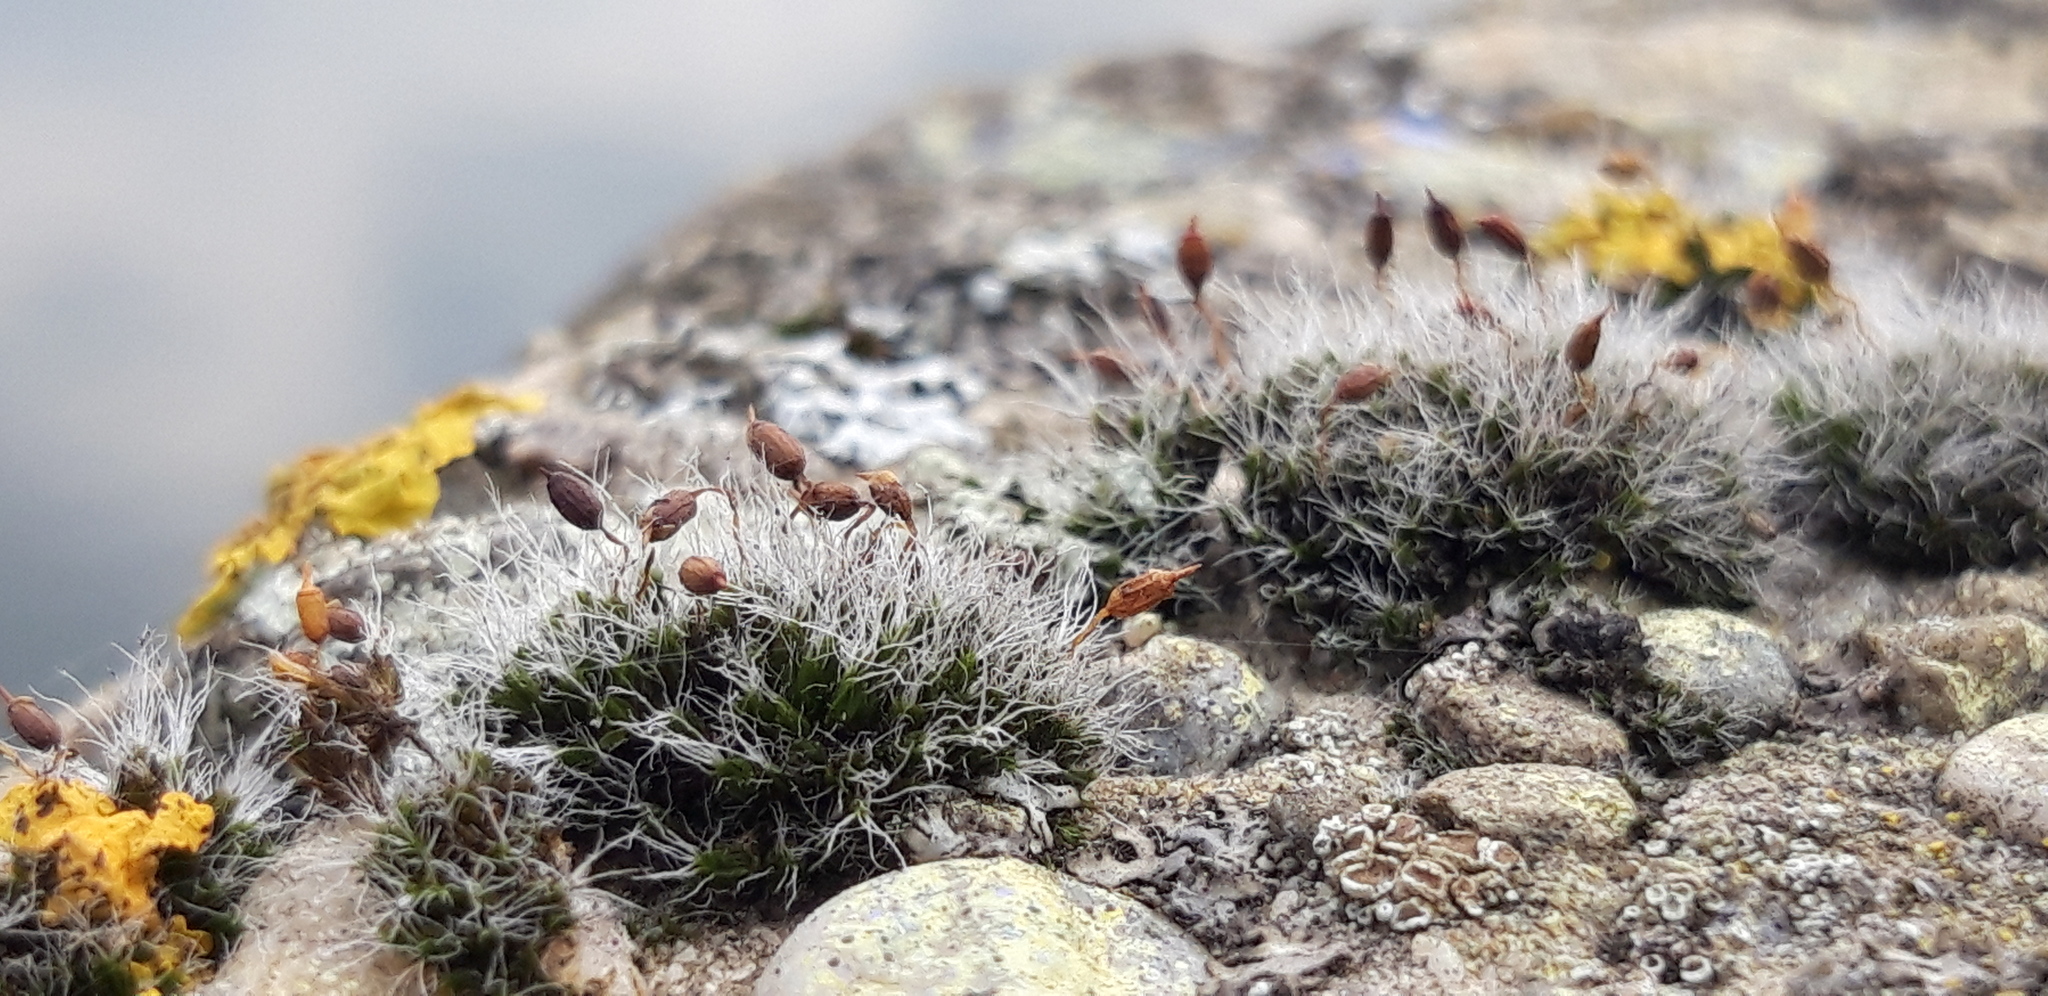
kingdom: Plantae
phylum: Bryophyta
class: Bryopsida
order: Grimmiales
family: Grimmiaceae
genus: Grimmia
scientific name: Grimmia pulvinata
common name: Grey-cushioned grimmia
